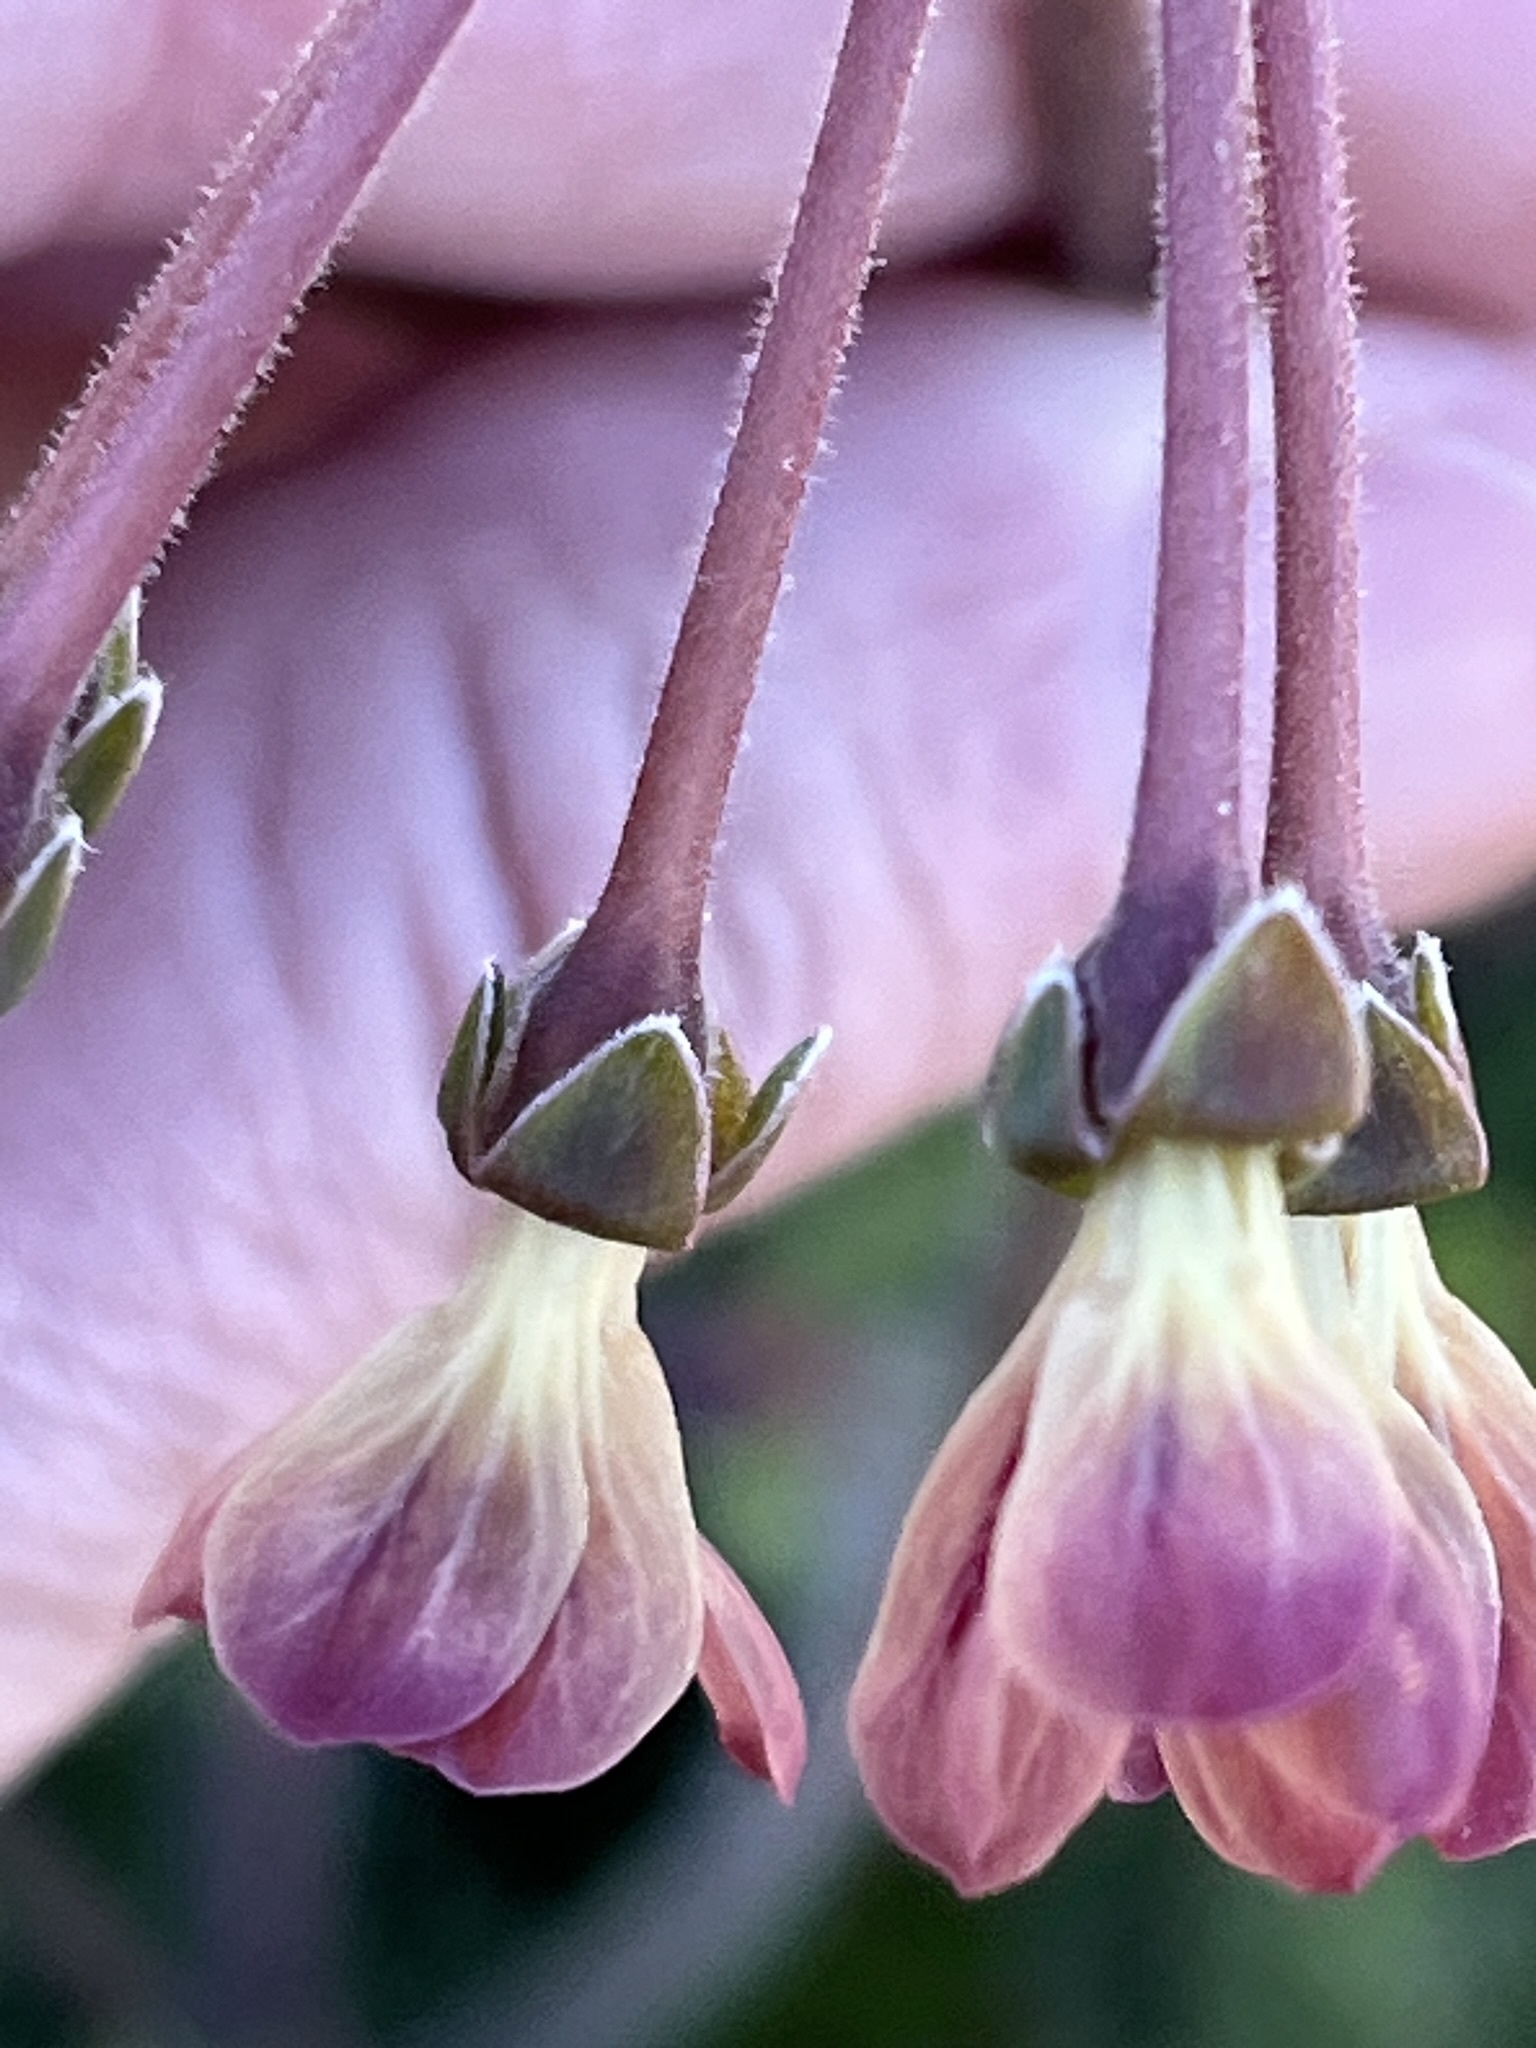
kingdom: Plantae
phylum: Tracheophyta
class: Magnoliopsida
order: Geraniales
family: Geraniaceae
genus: Pelargonium
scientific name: Pelargonium triste
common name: Night-scent pelargonium
